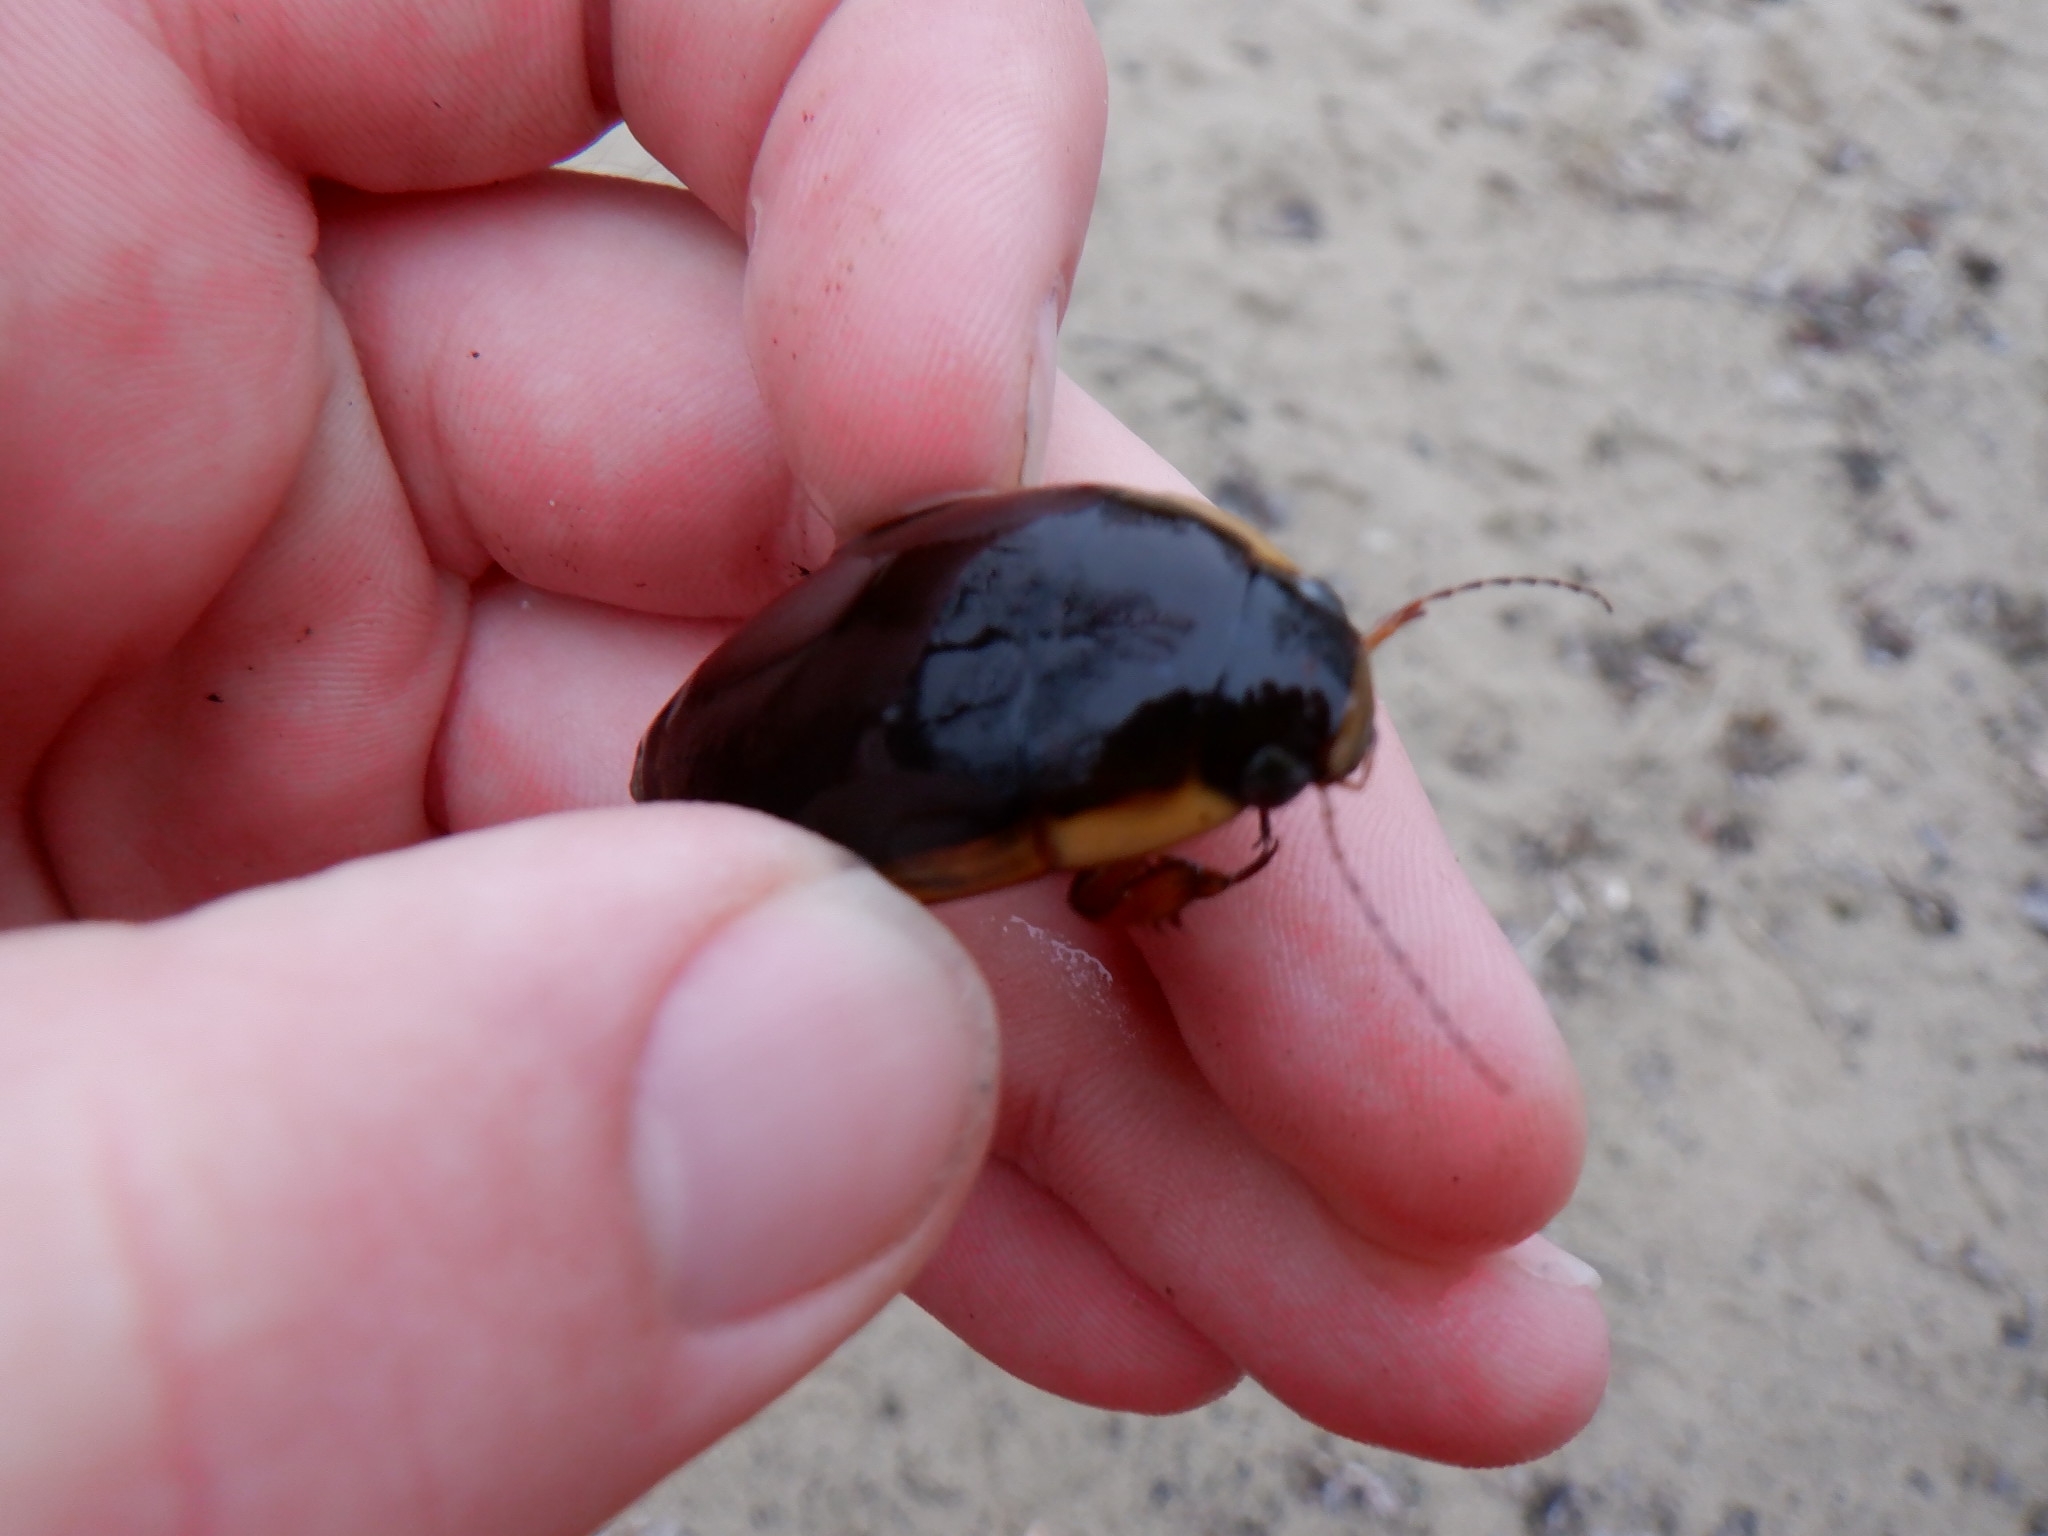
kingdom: Animalia
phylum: Arthropoda
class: Insecta
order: Coleoptera
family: Dytiscidae
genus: Dytiscus
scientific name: Dytiscus
